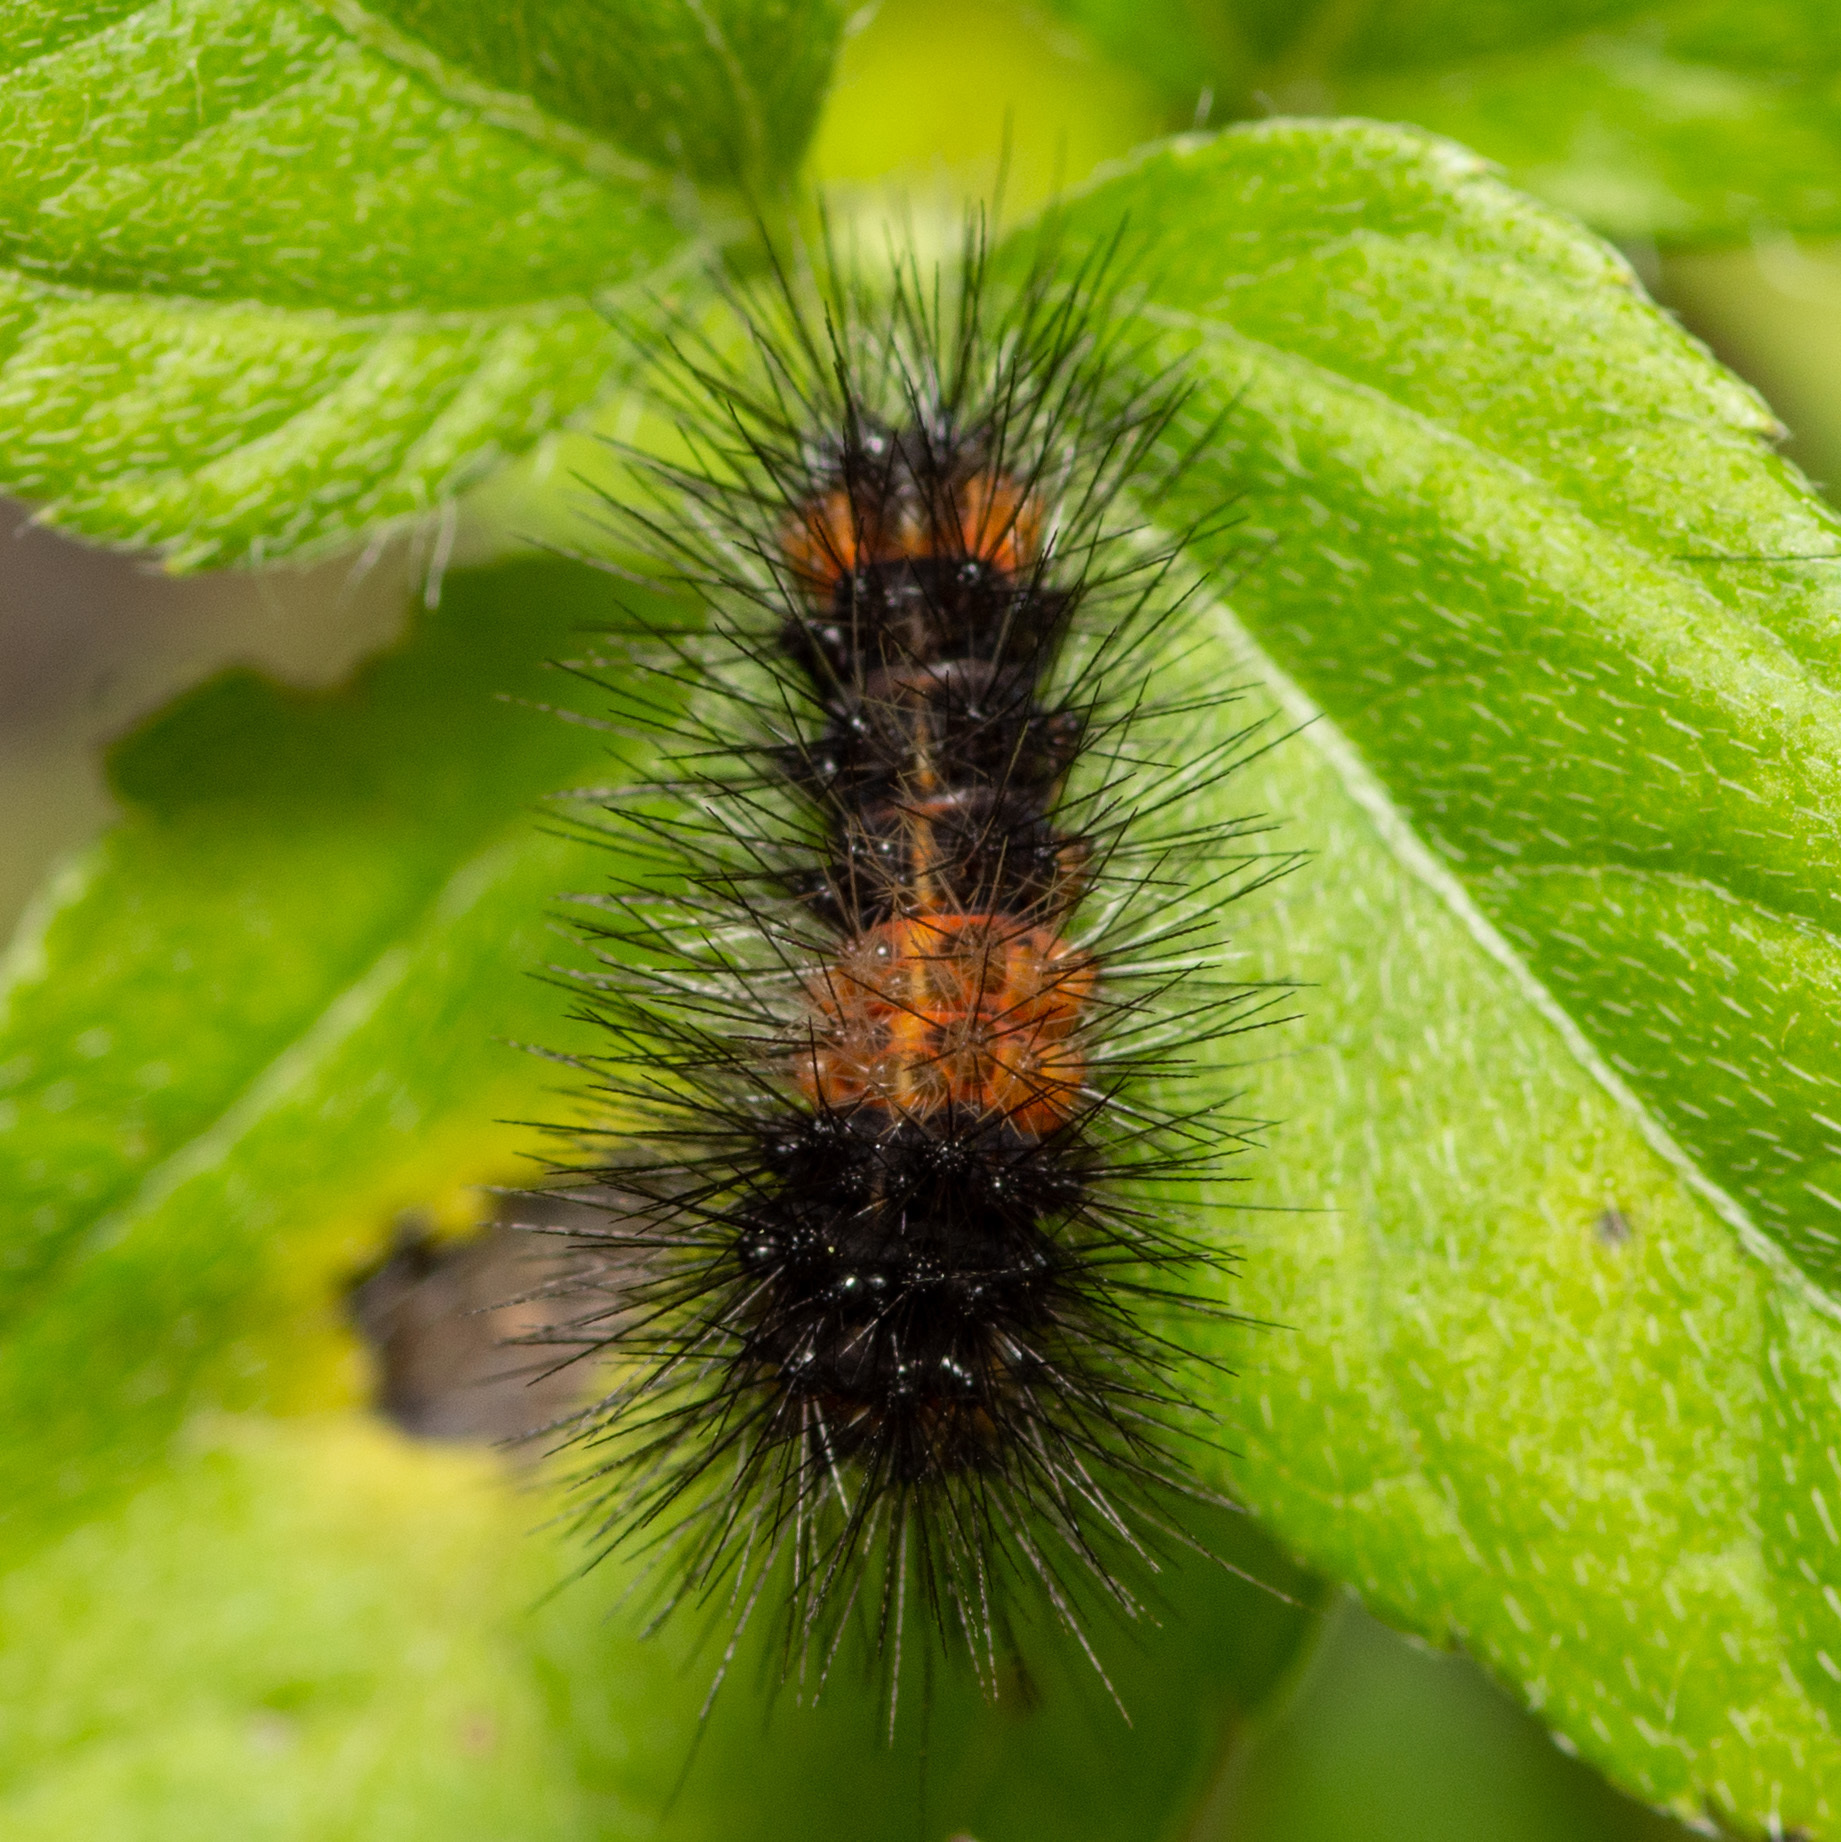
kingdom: Animalia
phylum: Arthropoda
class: Insecta
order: Lepidoptera
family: Erebidae
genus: Hypercompe
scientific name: Hypercompe scribonia
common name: Giant leopard moth
